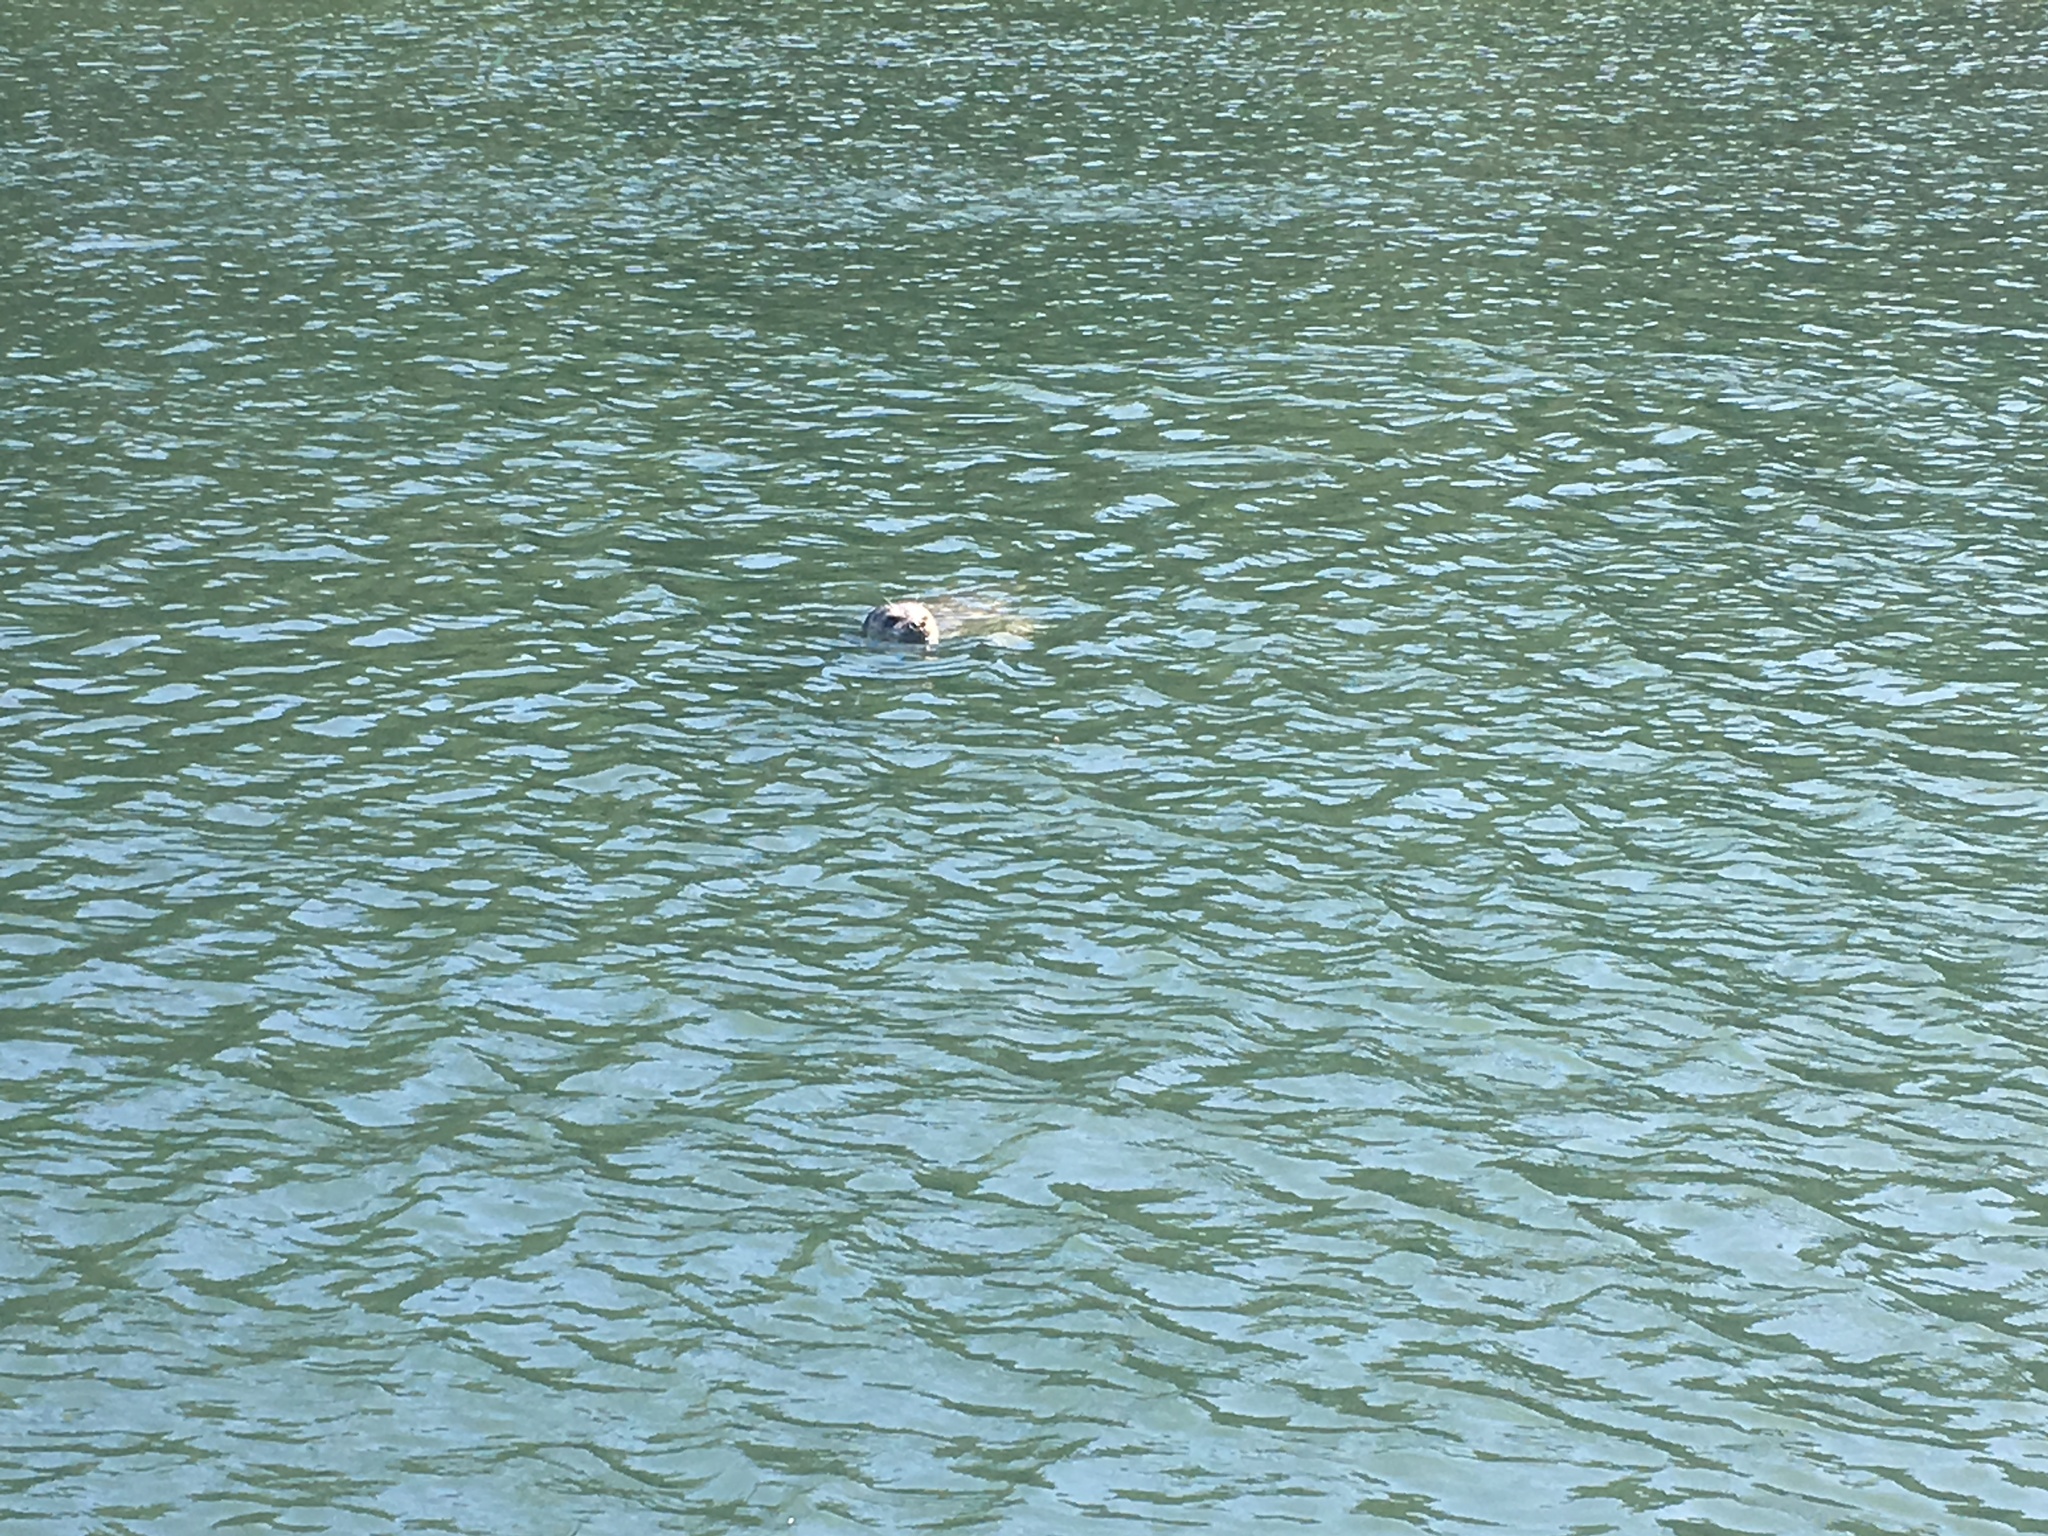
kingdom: Animalia
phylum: Chordata
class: Mammalia
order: Carnivora
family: Phocidae
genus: Phoca
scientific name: Phoca vitulina
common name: Harbor seal
